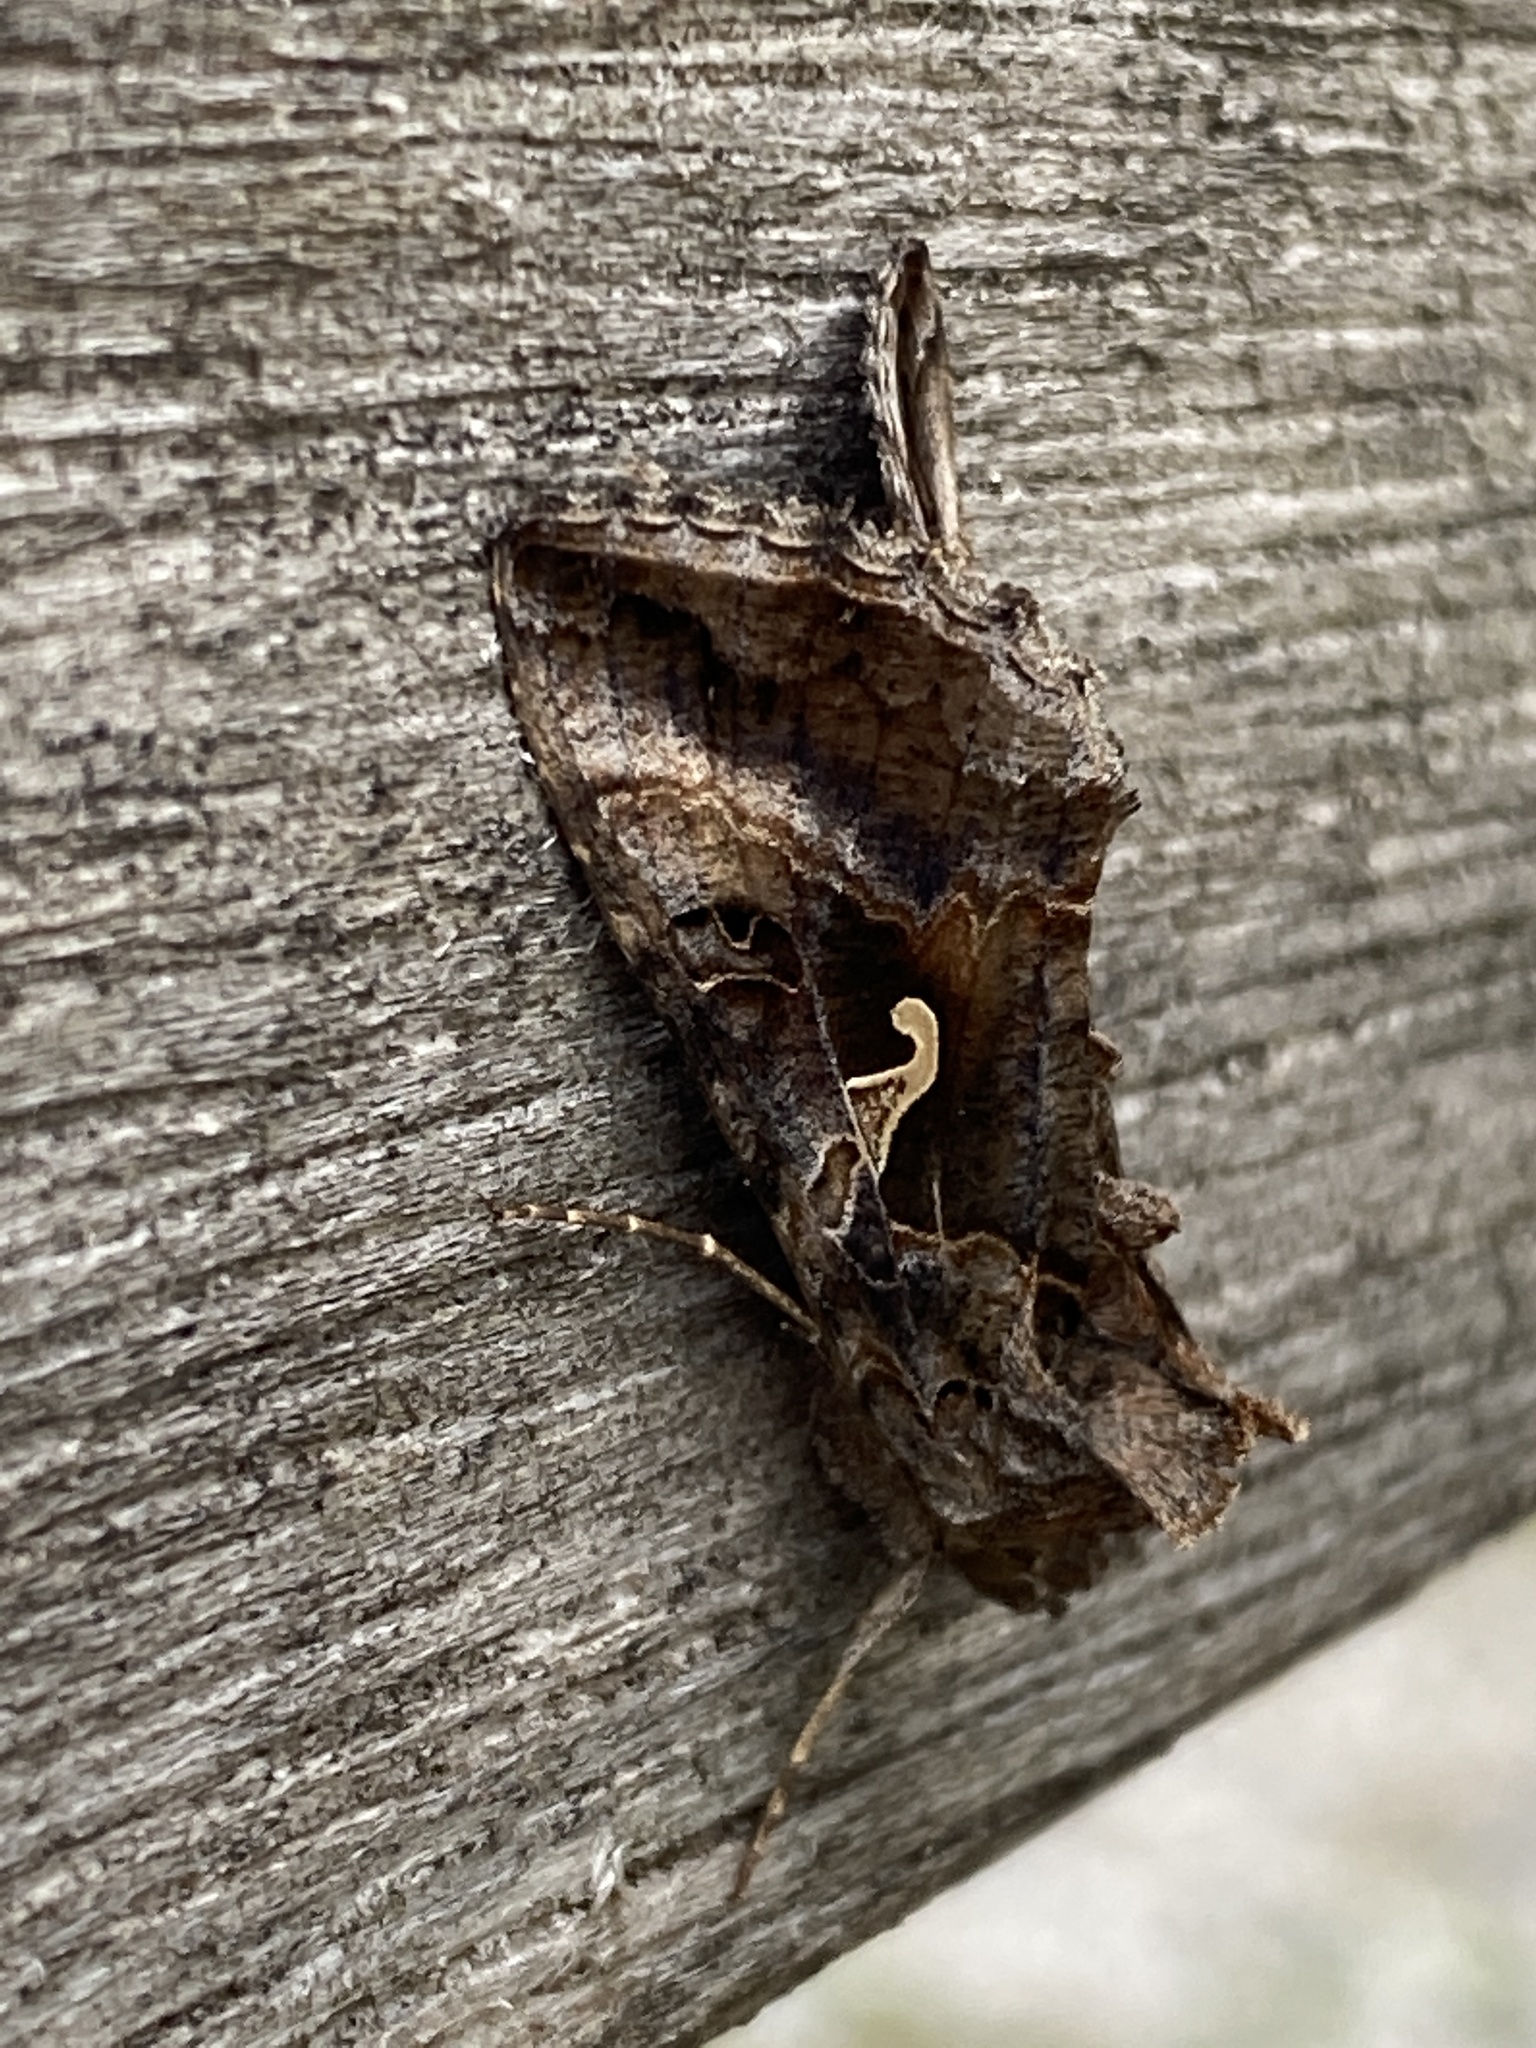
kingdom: Animalia
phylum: Arthropoda
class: Insecta
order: Lepidoptera
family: Noctuidae
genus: Autographa
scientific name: Autographa gamma
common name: Silver y
